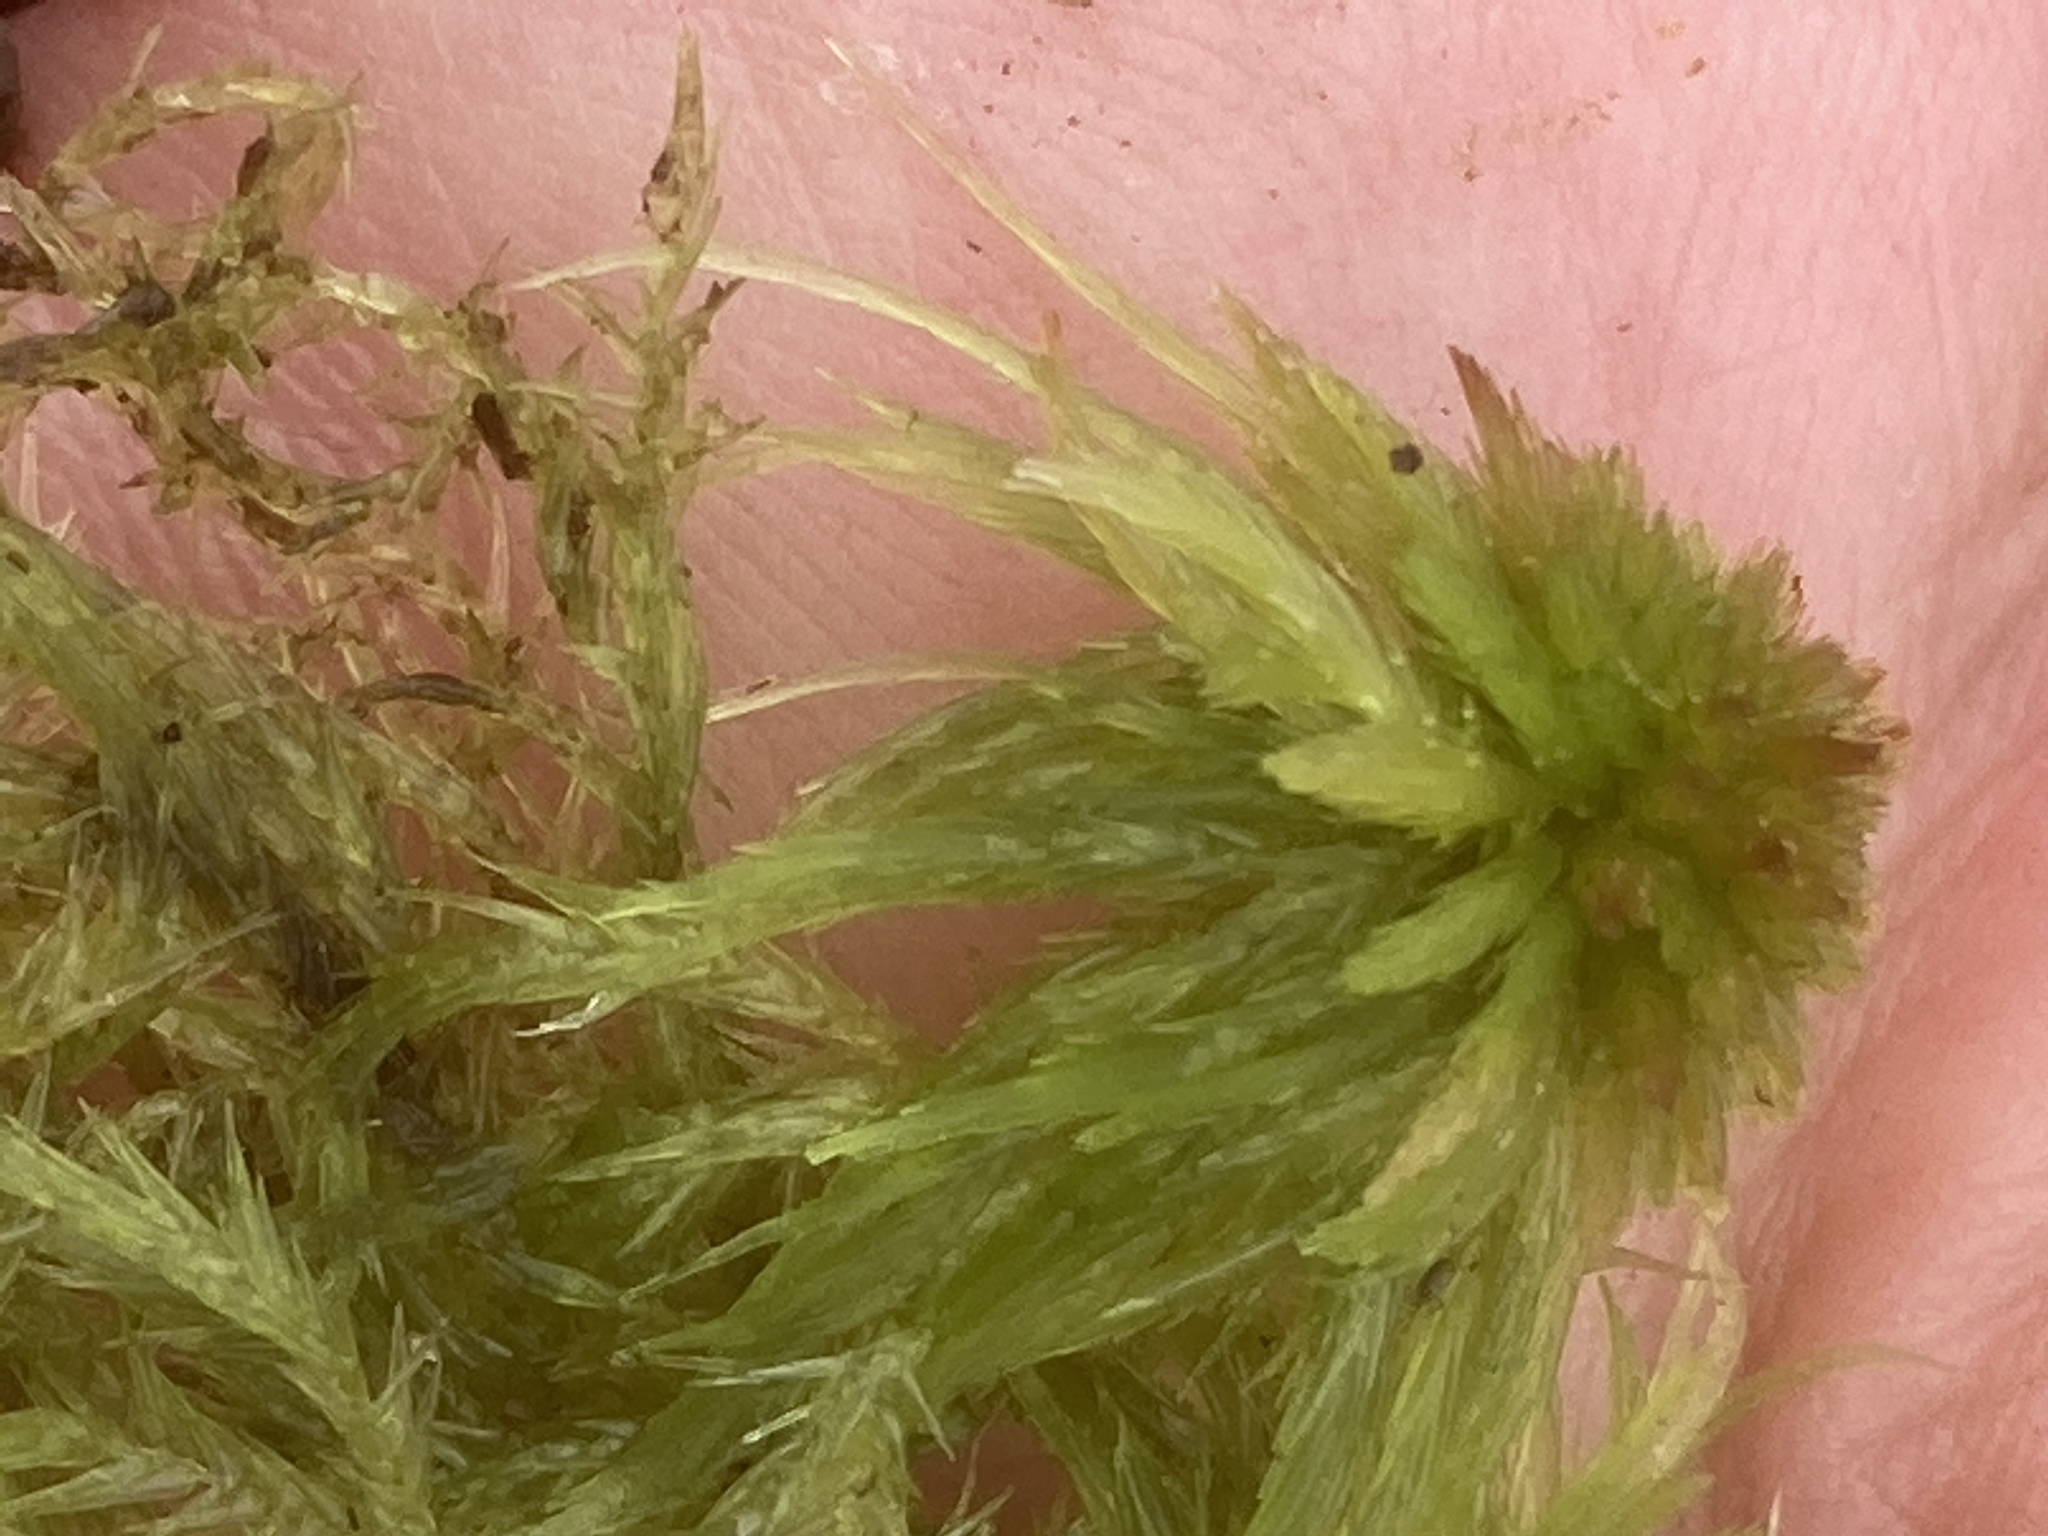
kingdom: Plantae
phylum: Bryophyta
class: Sphagnopsida
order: Sphagnales
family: Sphagnaceae
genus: Sphagnum
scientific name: Sphagnum fallax
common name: Flat-top peat moss
